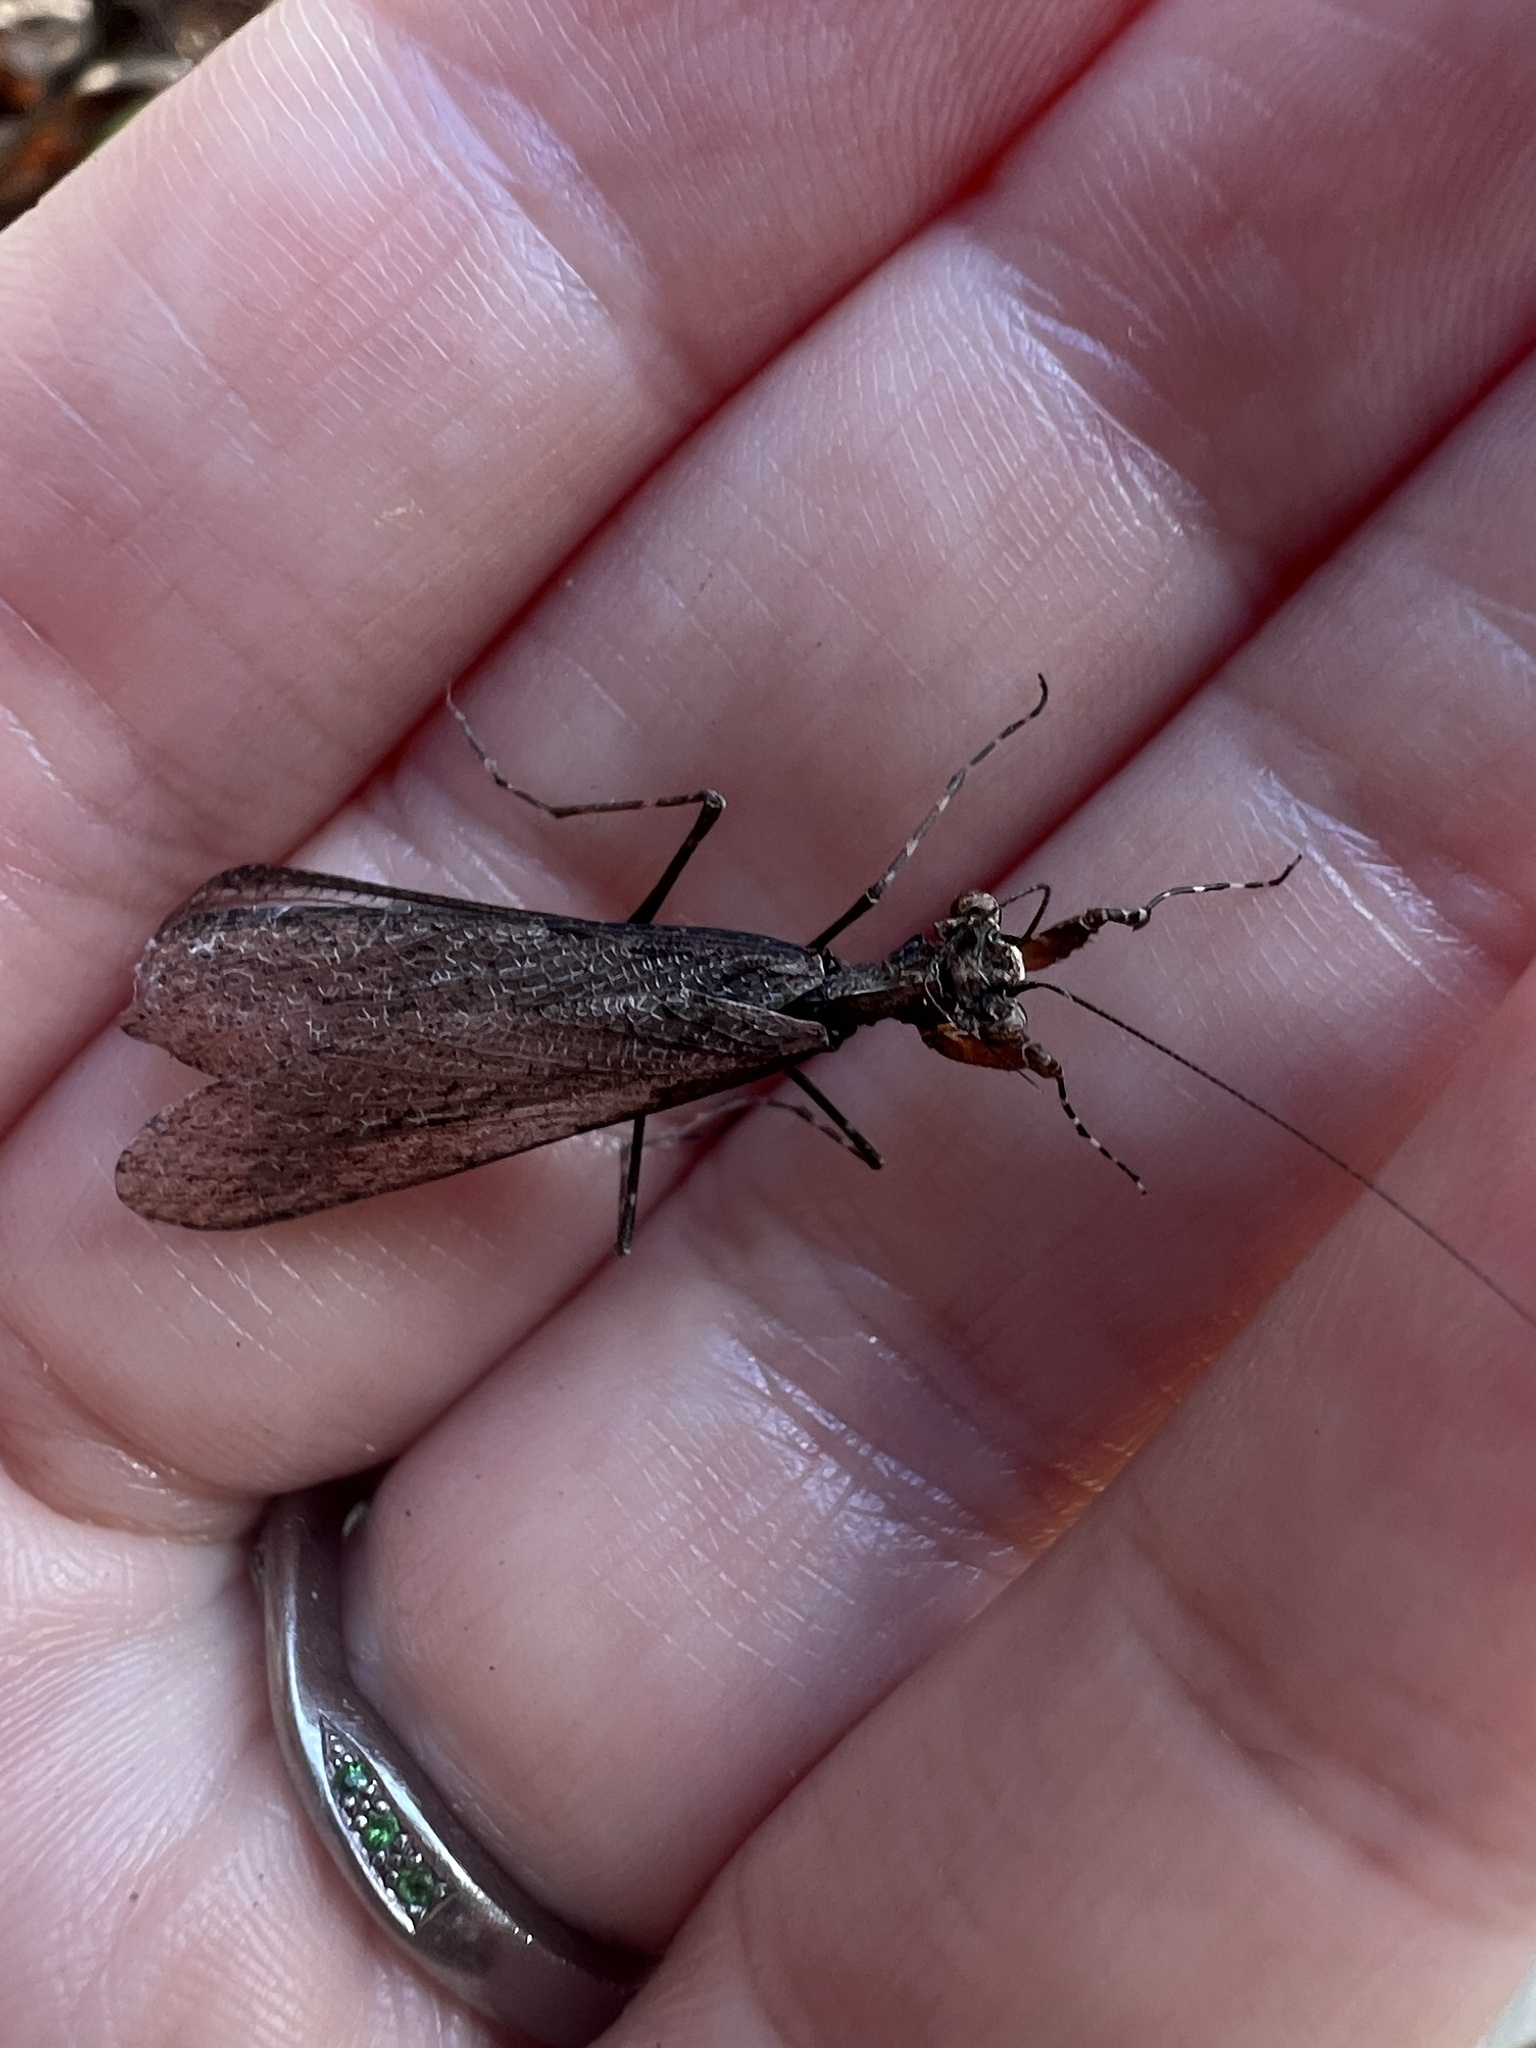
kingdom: Animalia
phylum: Arthropoda
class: Insecta
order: Mantodea
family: Nanomantidae
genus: Paraoxypilus
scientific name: Paraoxypilus tasmaniensis
